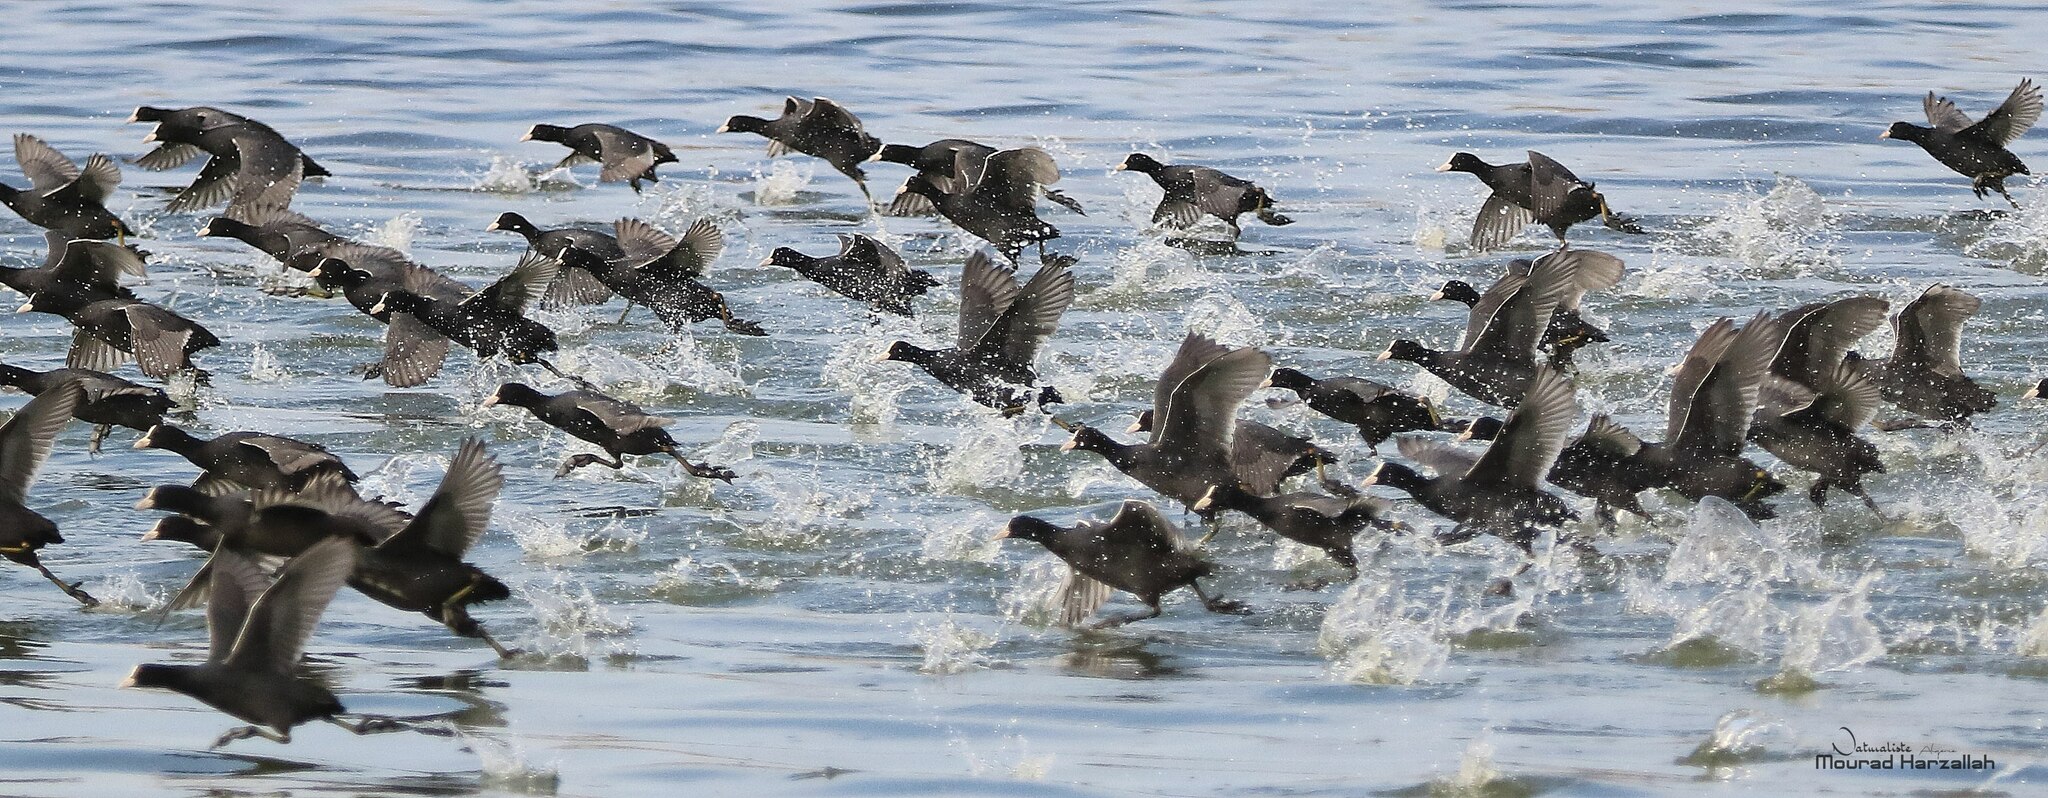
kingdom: Animalia
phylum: Chordata
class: Aves
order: Gruiformes
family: Rallidae
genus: Fulica
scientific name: Fulica atra
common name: Eurasian coot
